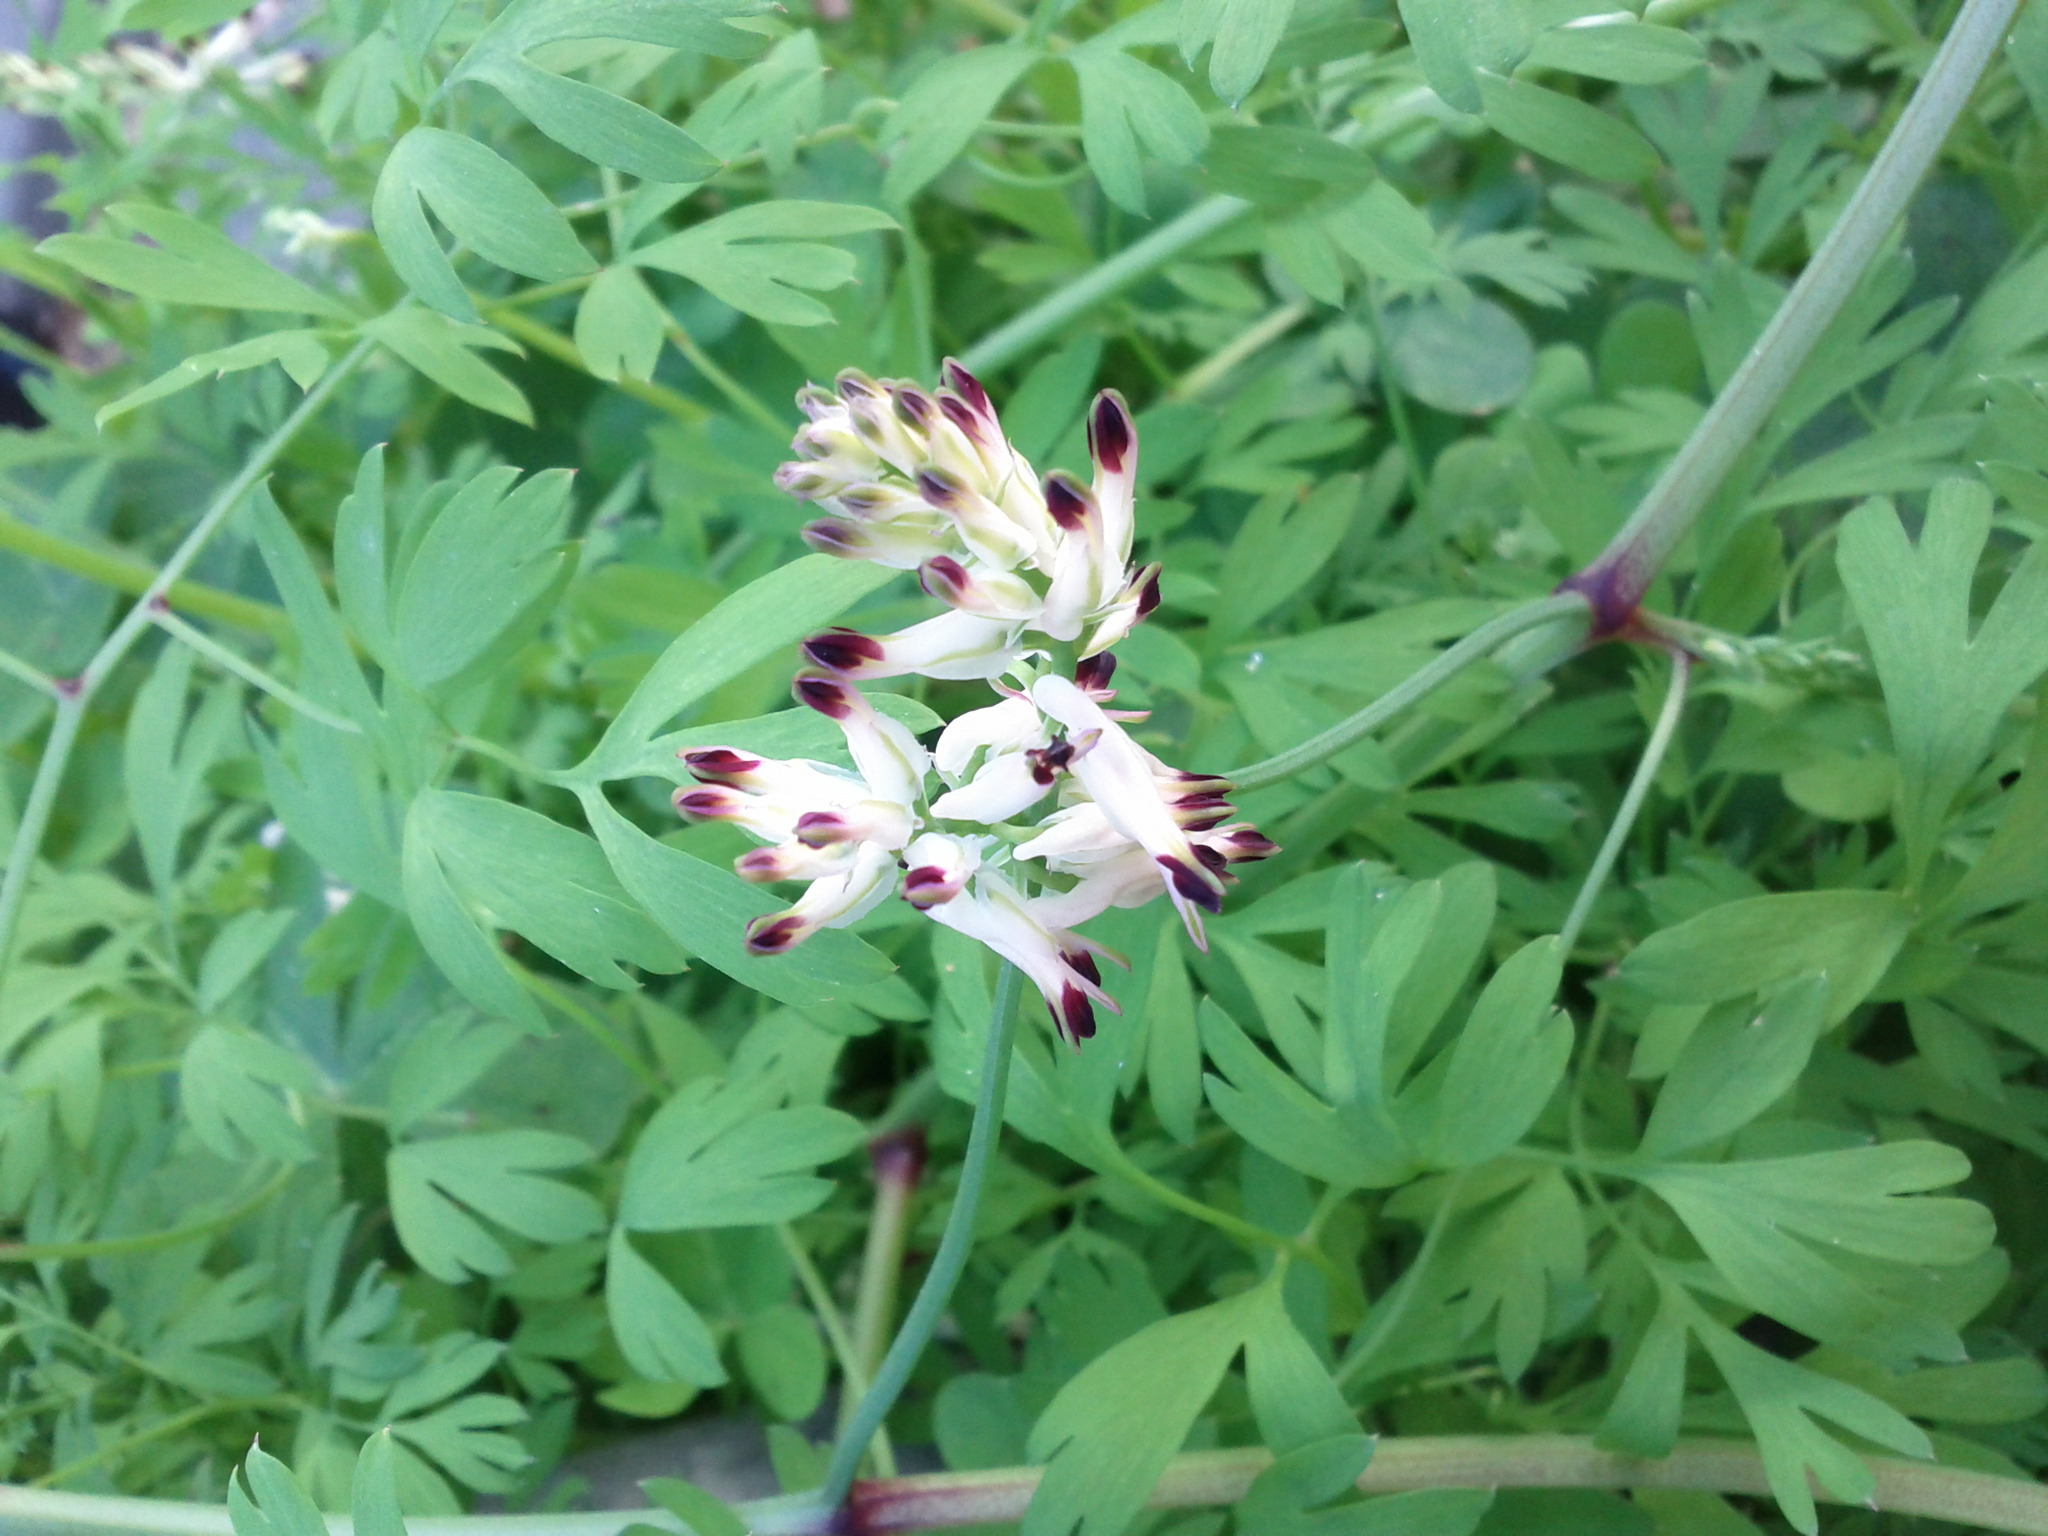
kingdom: Plantae
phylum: Tracheophyta
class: Magnoliopsida
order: Ranunculales
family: Papaveraceae
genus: Fumaria
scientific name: Fumaria capreolata
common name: White ramping-fumitory
